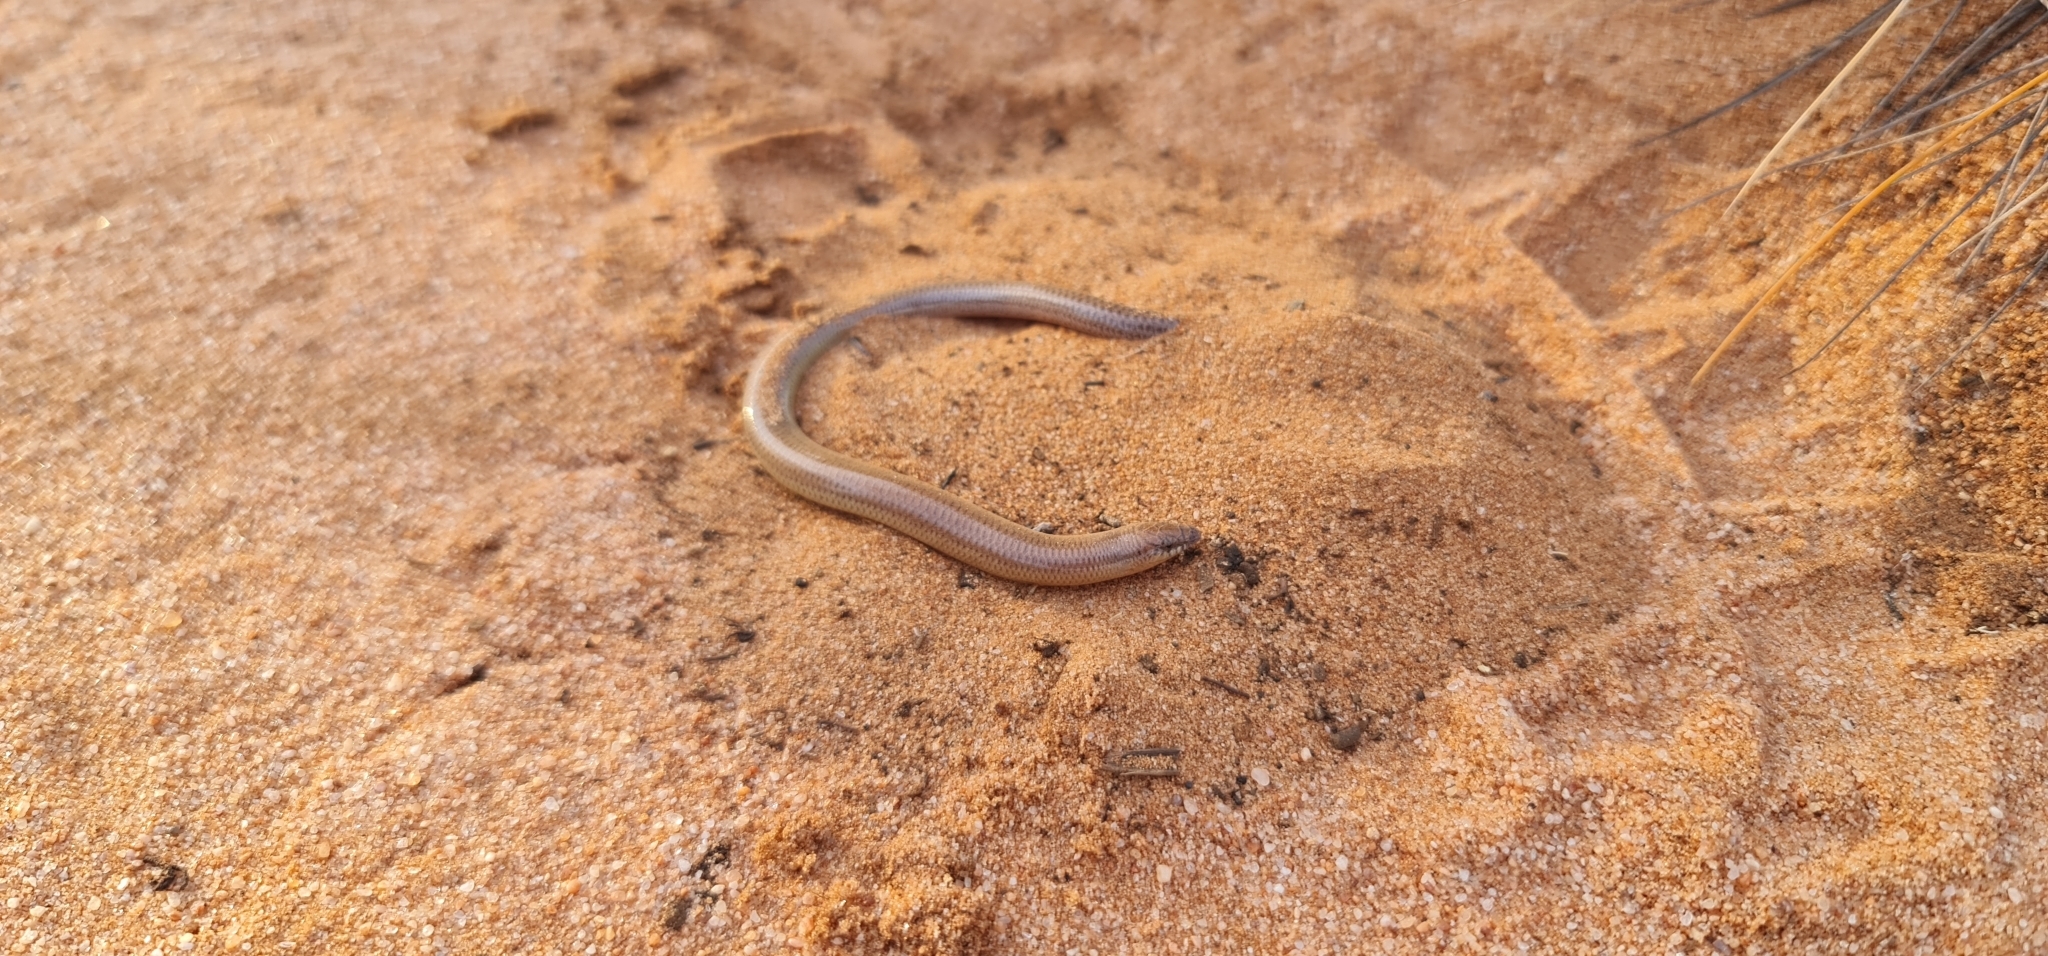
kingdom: Animalia
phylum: Chordata
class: Squamata
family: Scincidae
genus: Lerista
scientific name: Lerista punctatovittata
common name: Eastern robust slider
